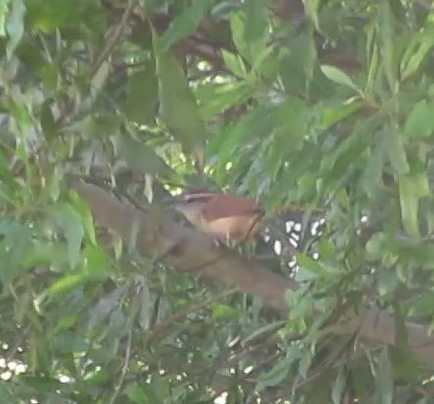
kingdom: Animalia
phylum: Chordata
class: Aves
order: Passeriformes
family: Troglodytidae
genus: Thryothorus
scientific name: Thryothorus ludovicianus
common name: Carolina wren
